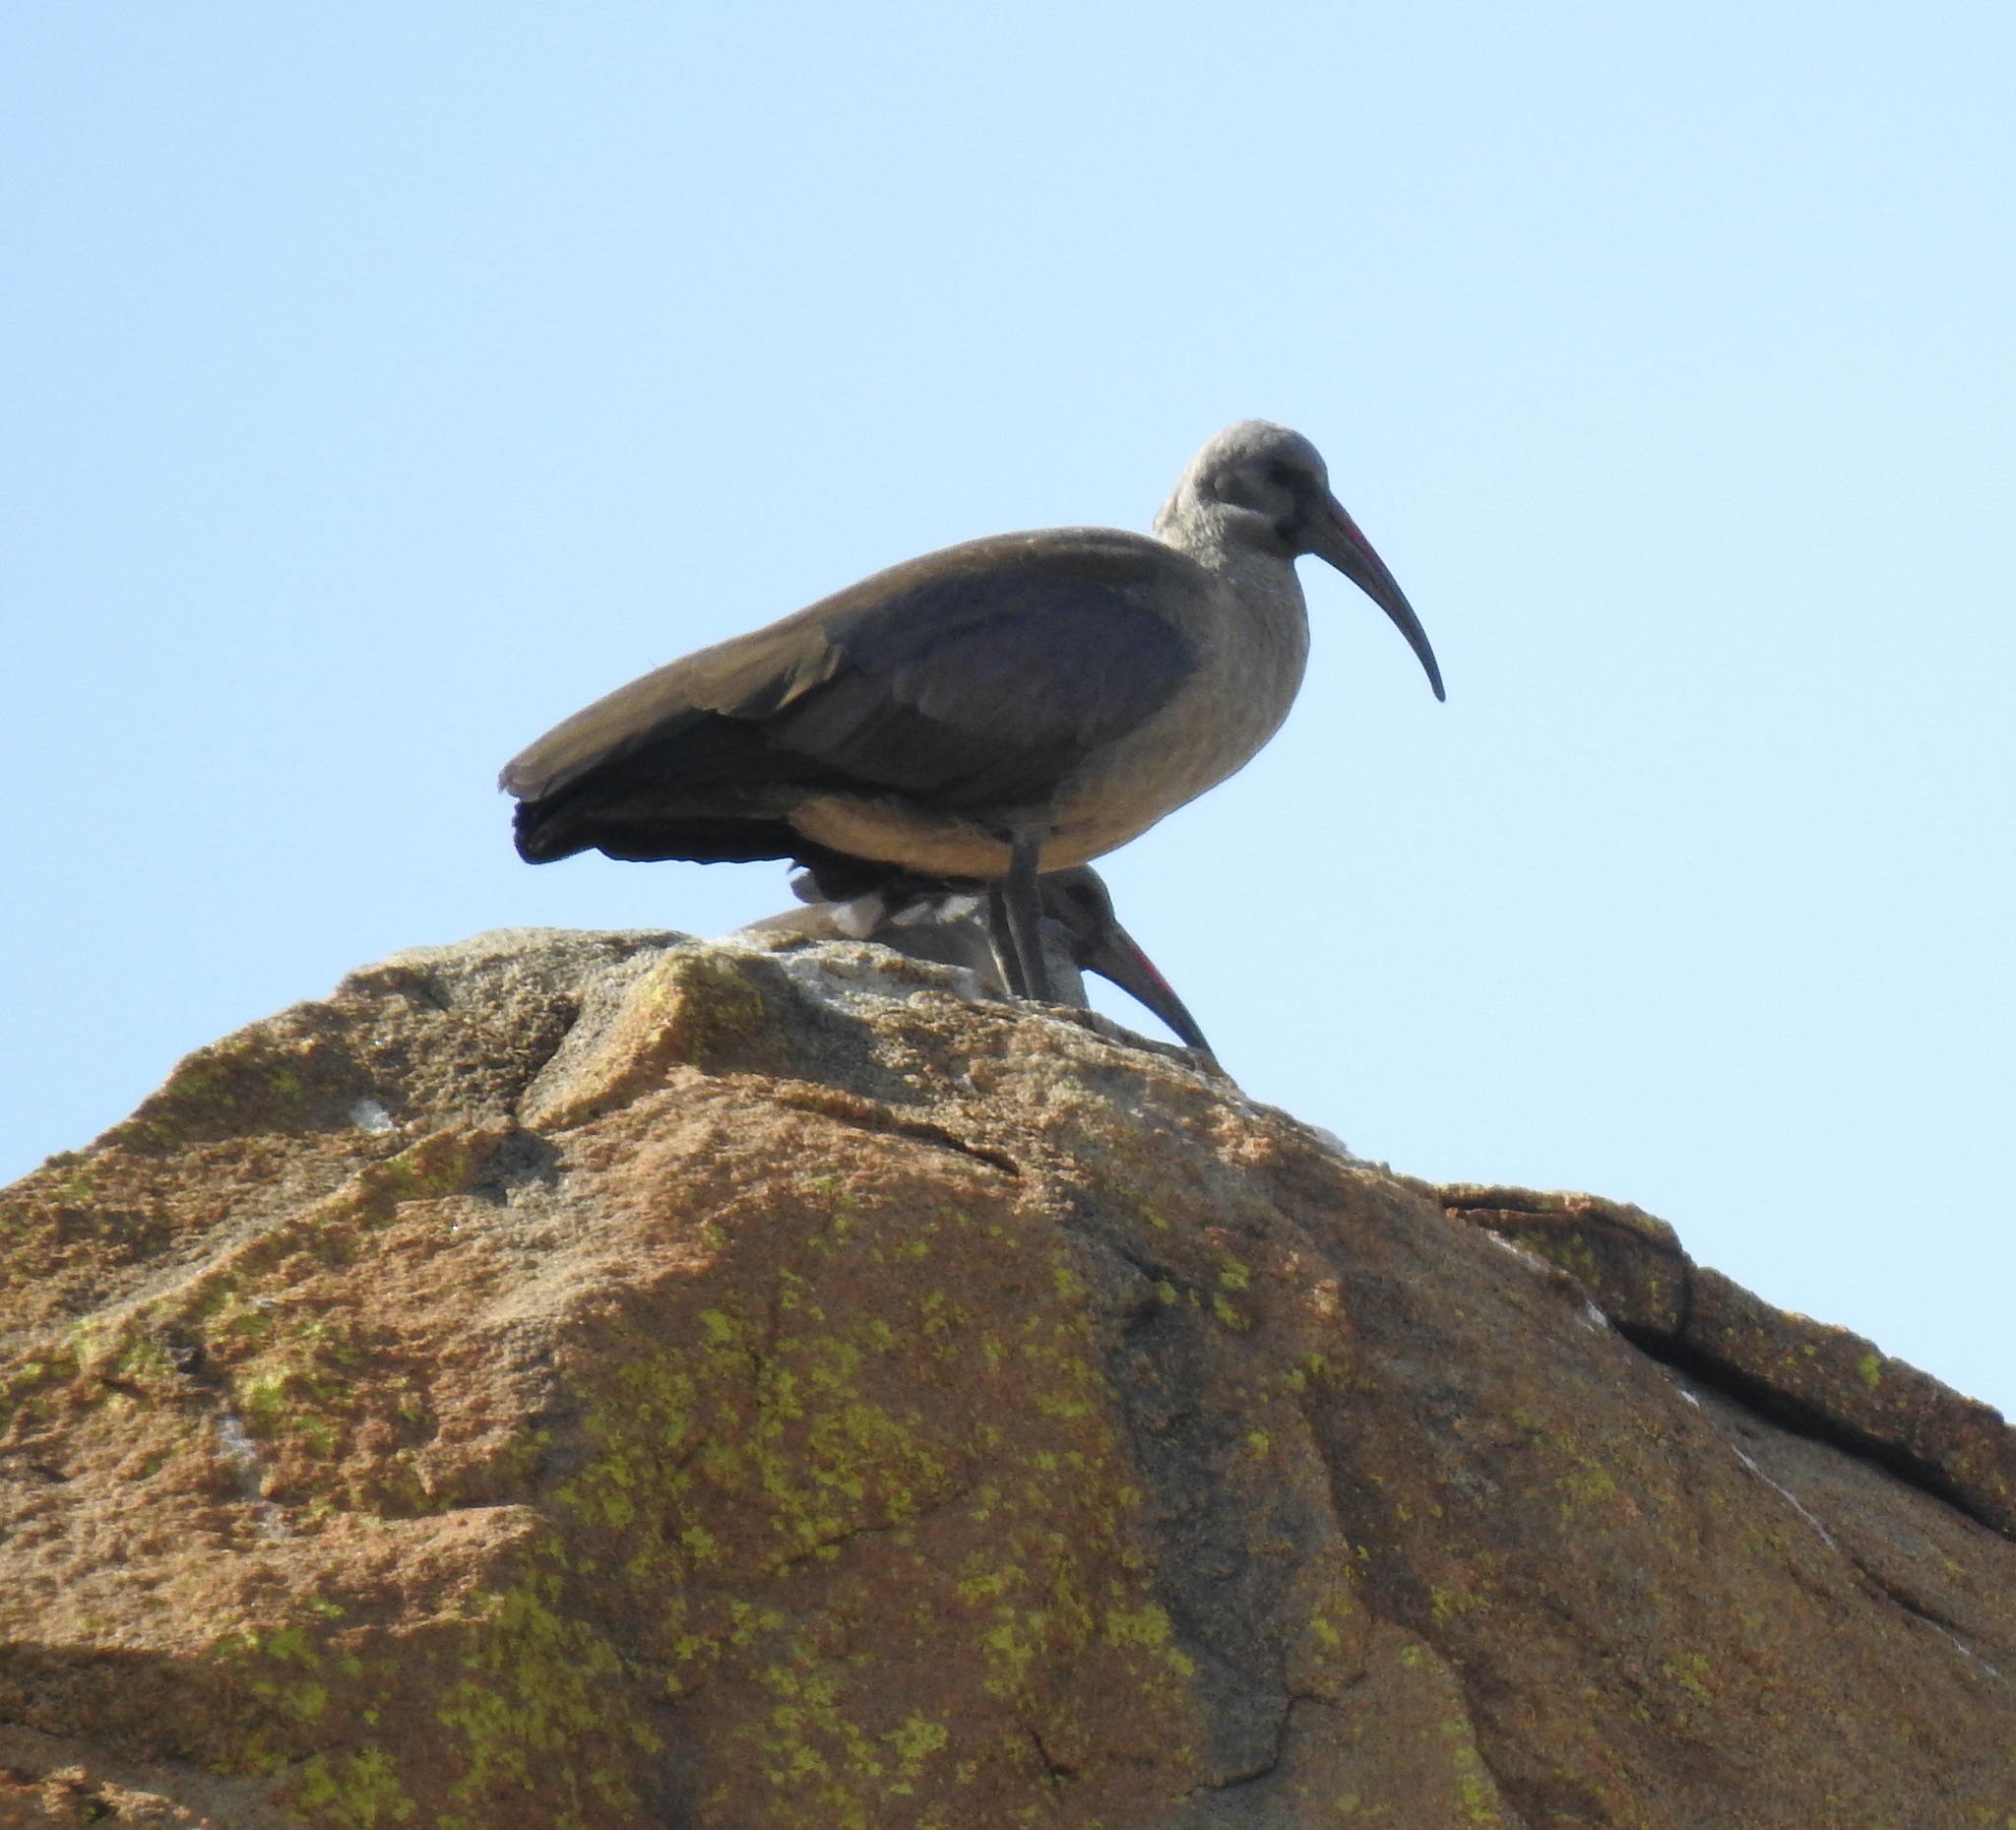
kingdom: Animalia
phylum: Chordata
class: Aves
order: Pelecaniformes
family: Threskiornithidae
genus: Bostrychia
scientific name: Bostrychia hagedash
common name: Hadada ibis
